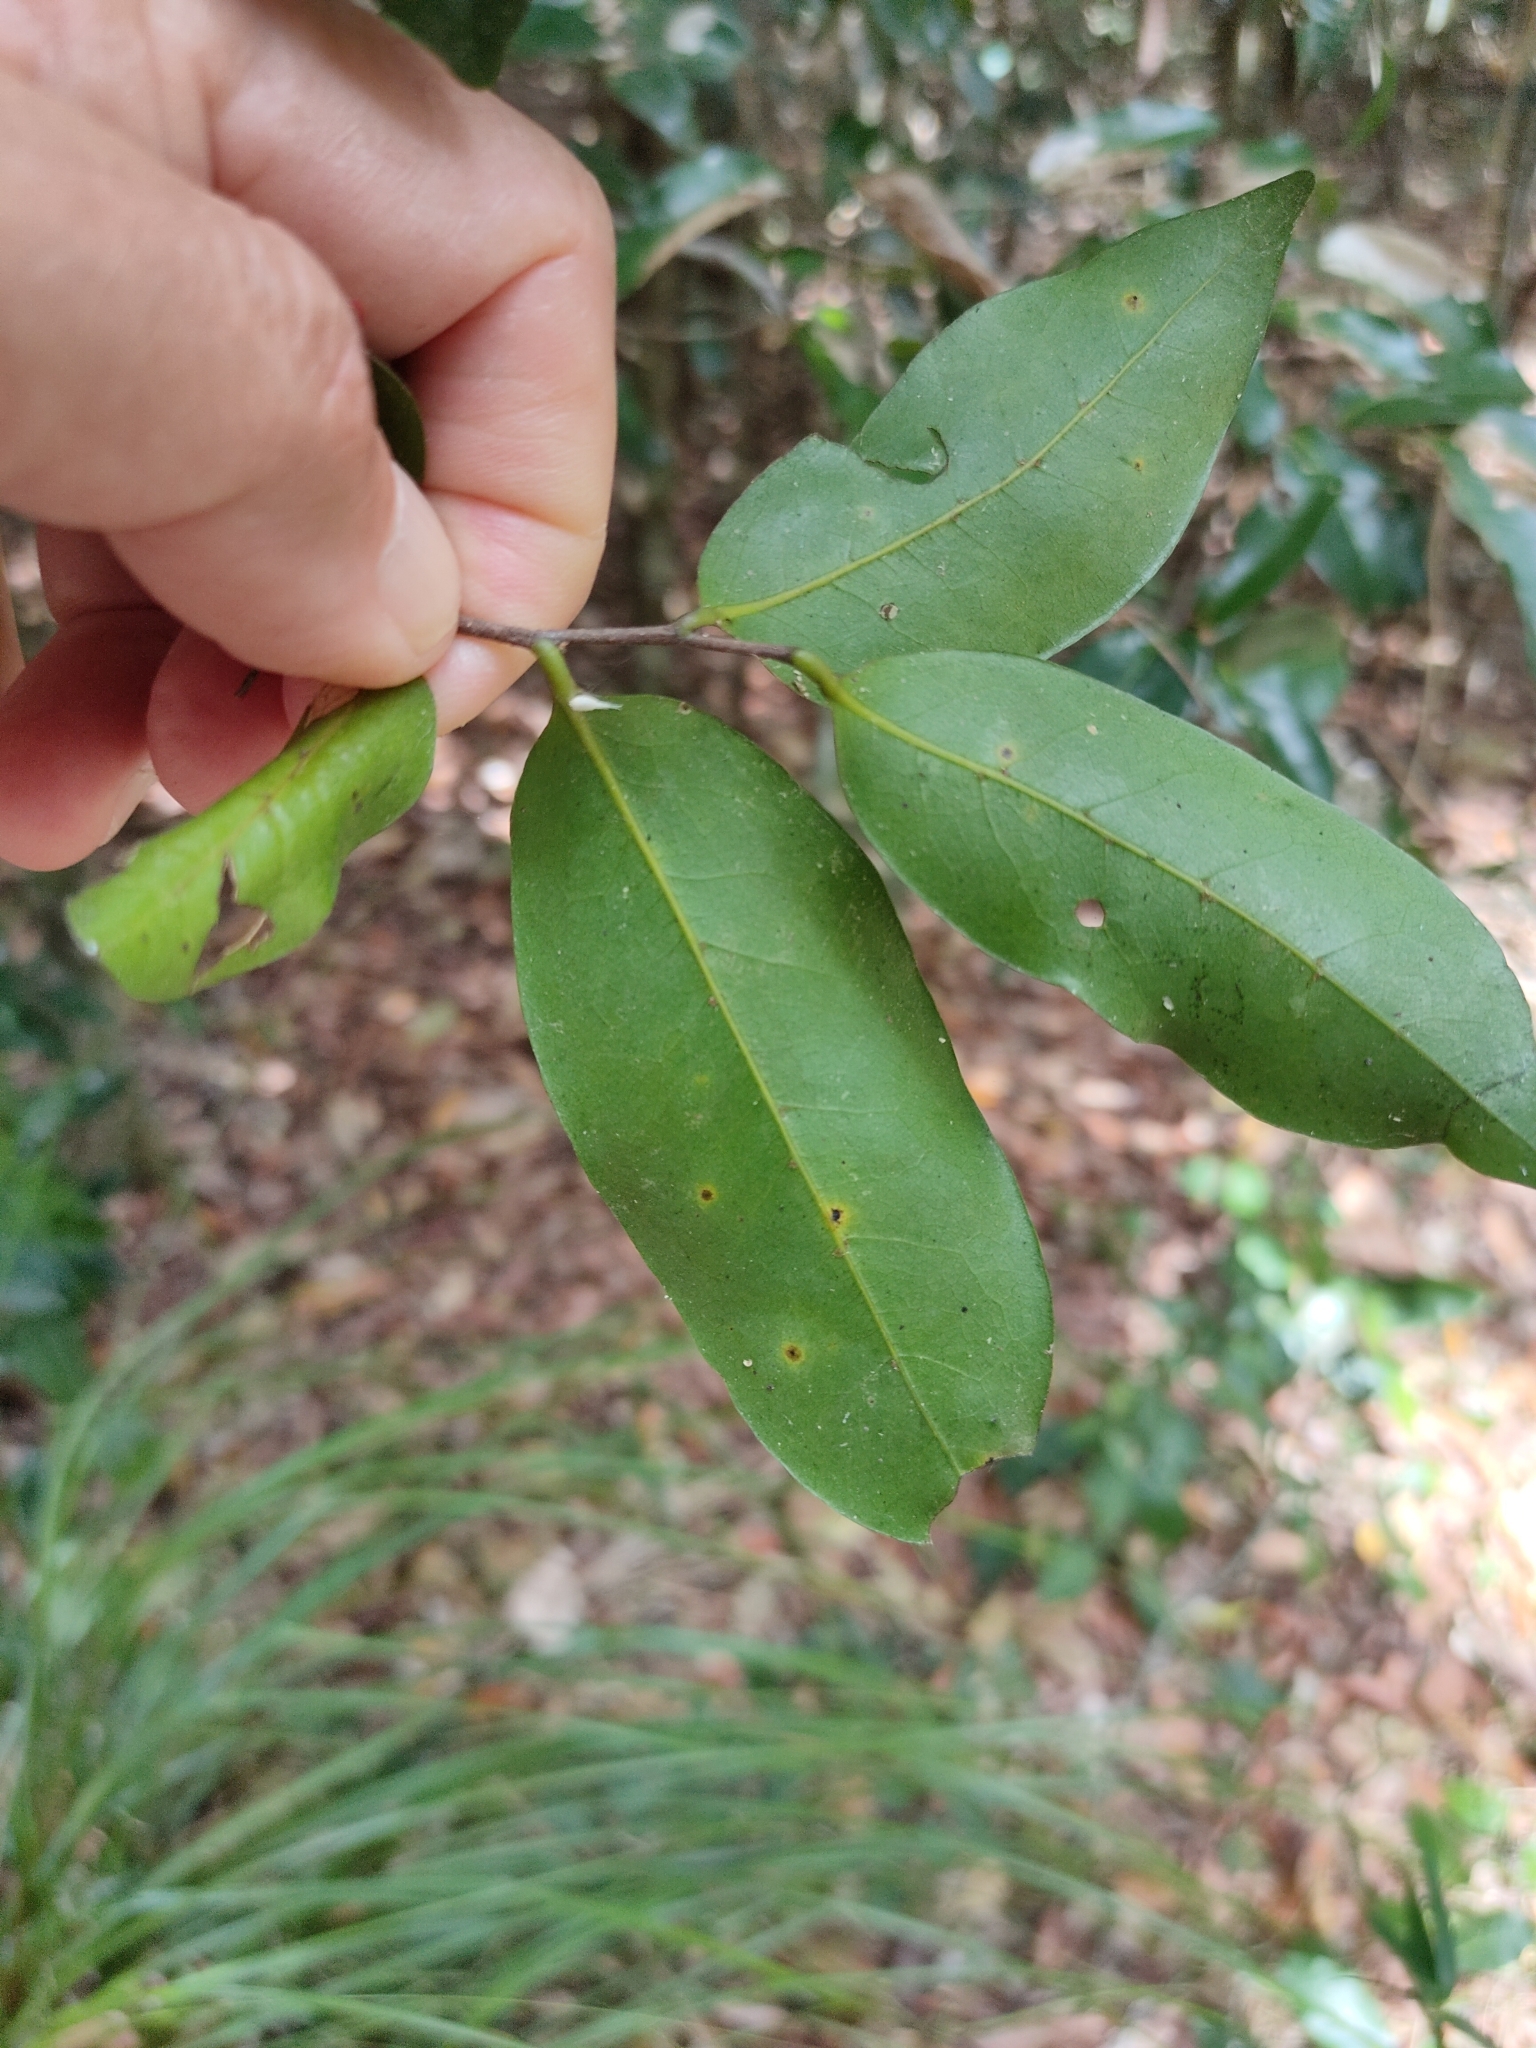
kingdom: Plantae
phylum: Tracheophyta
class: Magnoliopsida
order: Magnoliales
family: Annonaceae
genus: Hubera
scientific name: Hubera nitidissima
